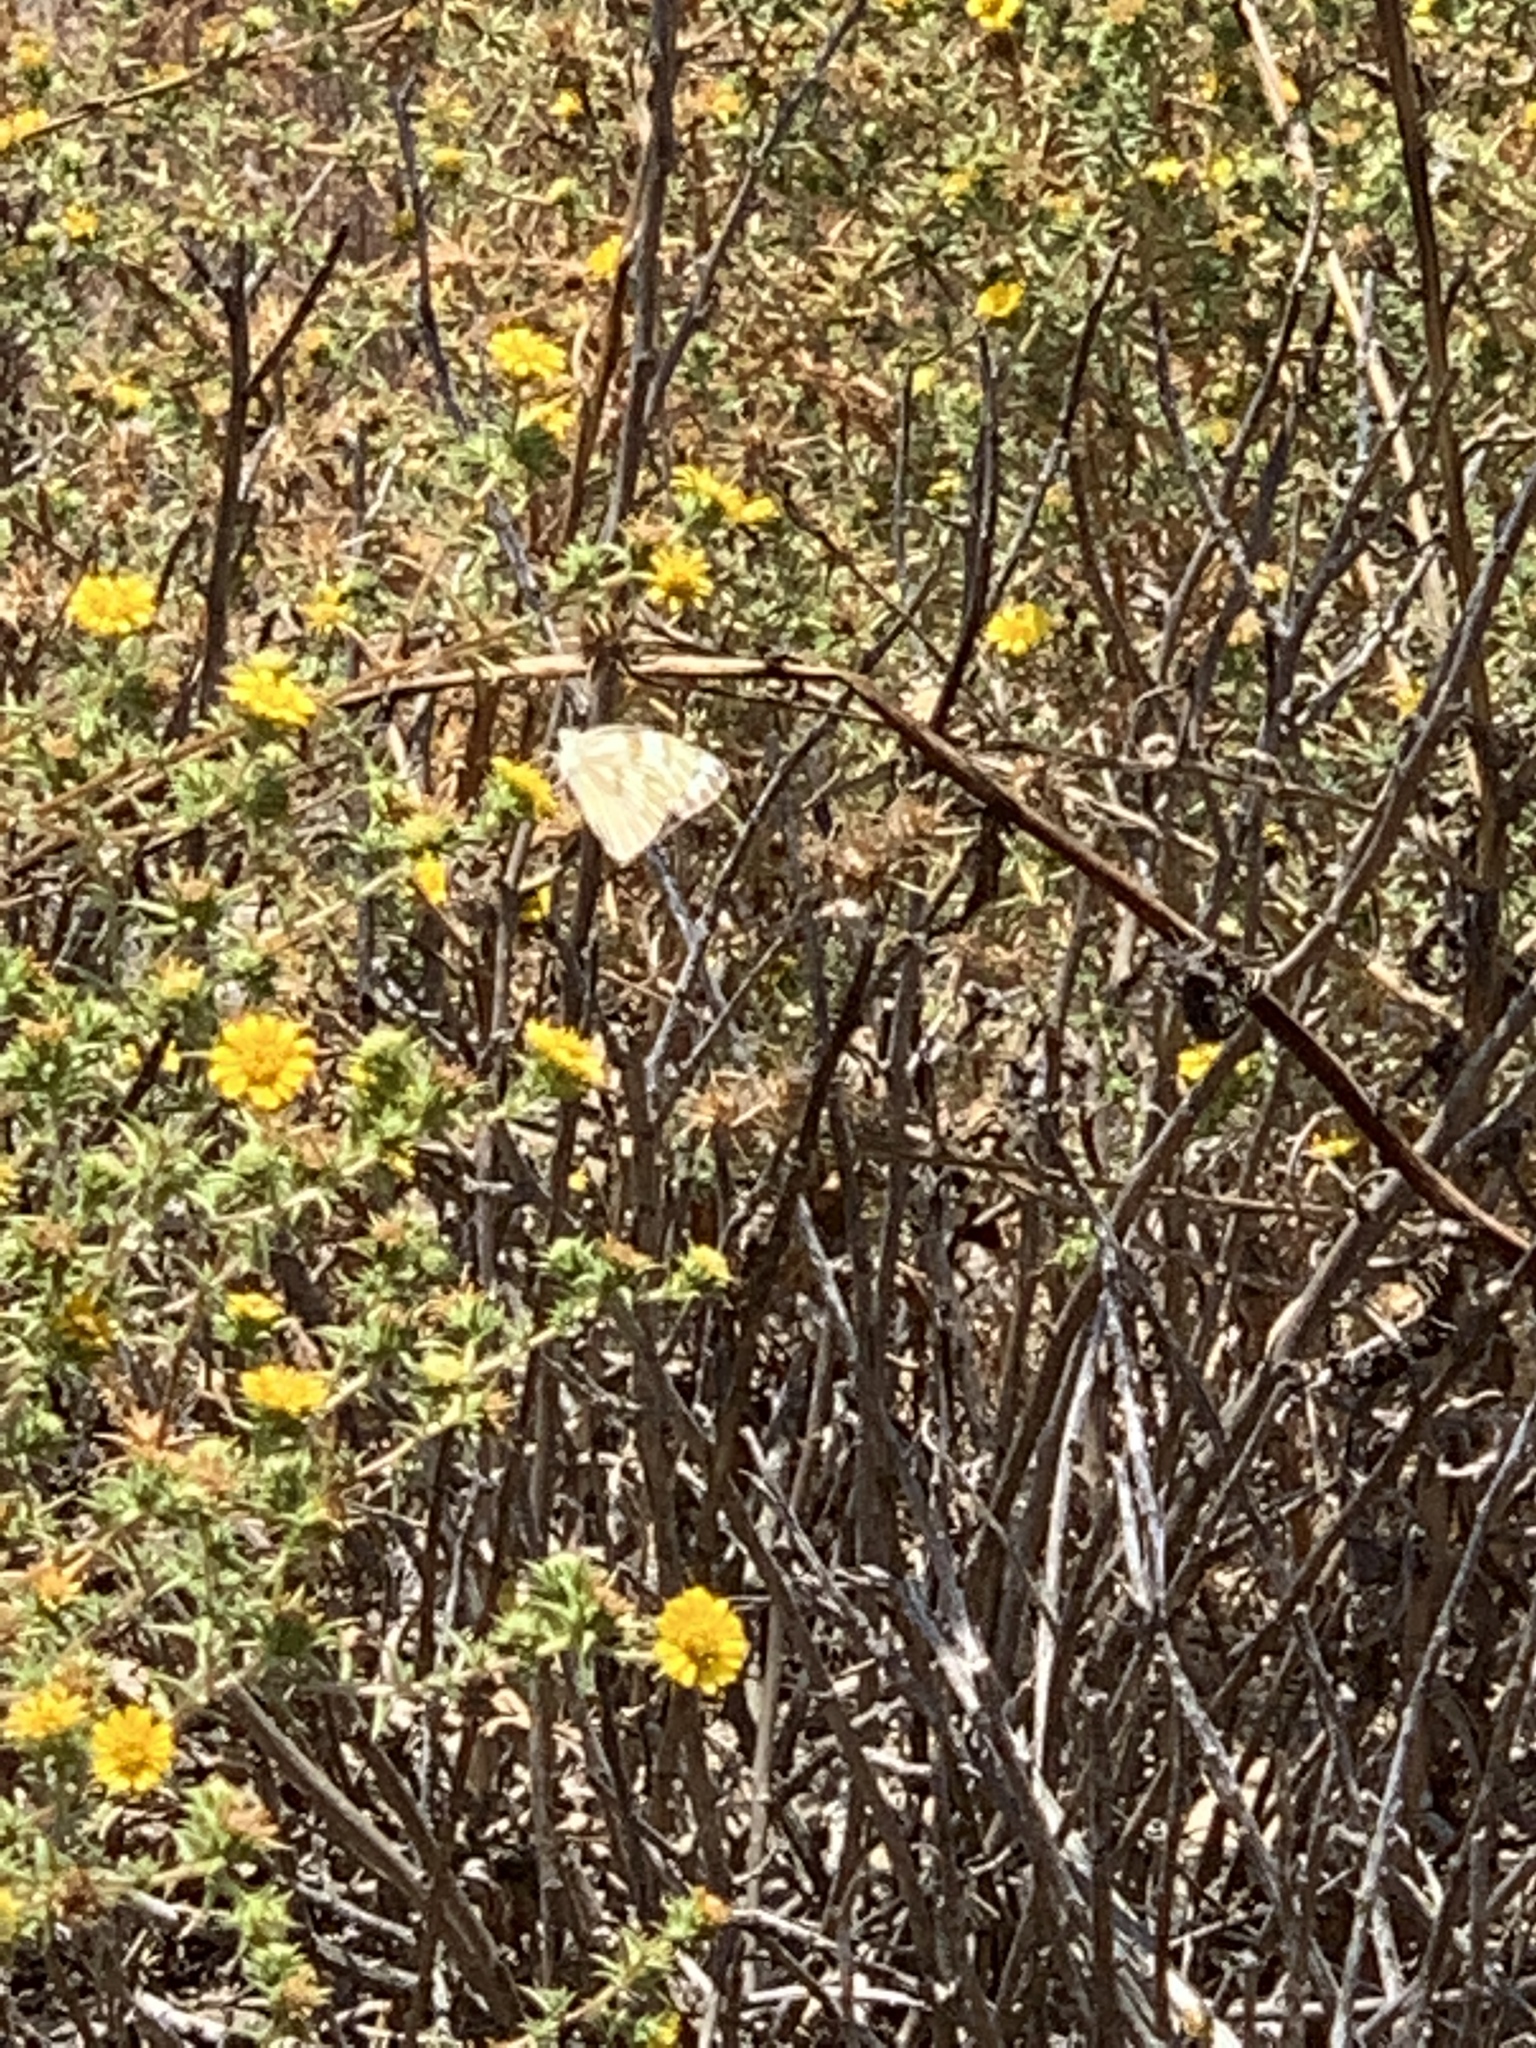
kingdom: Animalia
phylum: Arthropoda
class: Insecta
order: Lepidoptera
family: Pieridae
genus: Pontia
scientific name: Pontia protodice
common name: Checkered white
